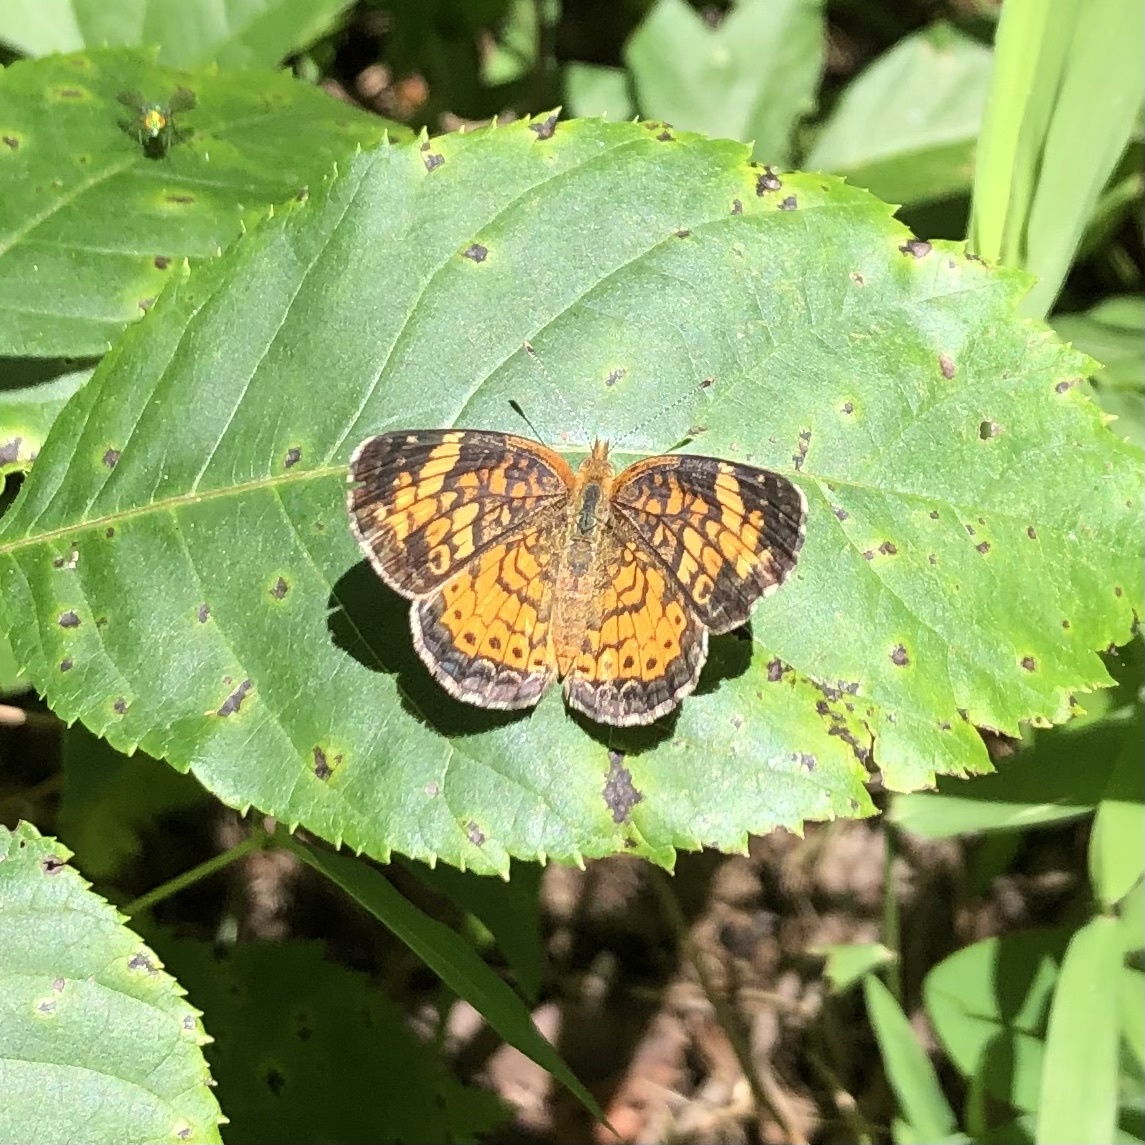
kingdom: Animalia
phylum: Arthropoda
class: Insecta
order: Lepidoptera
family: Nymphalidae
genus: Phyciodes
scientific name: Phyciodes tharos
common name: Pearl crescent
